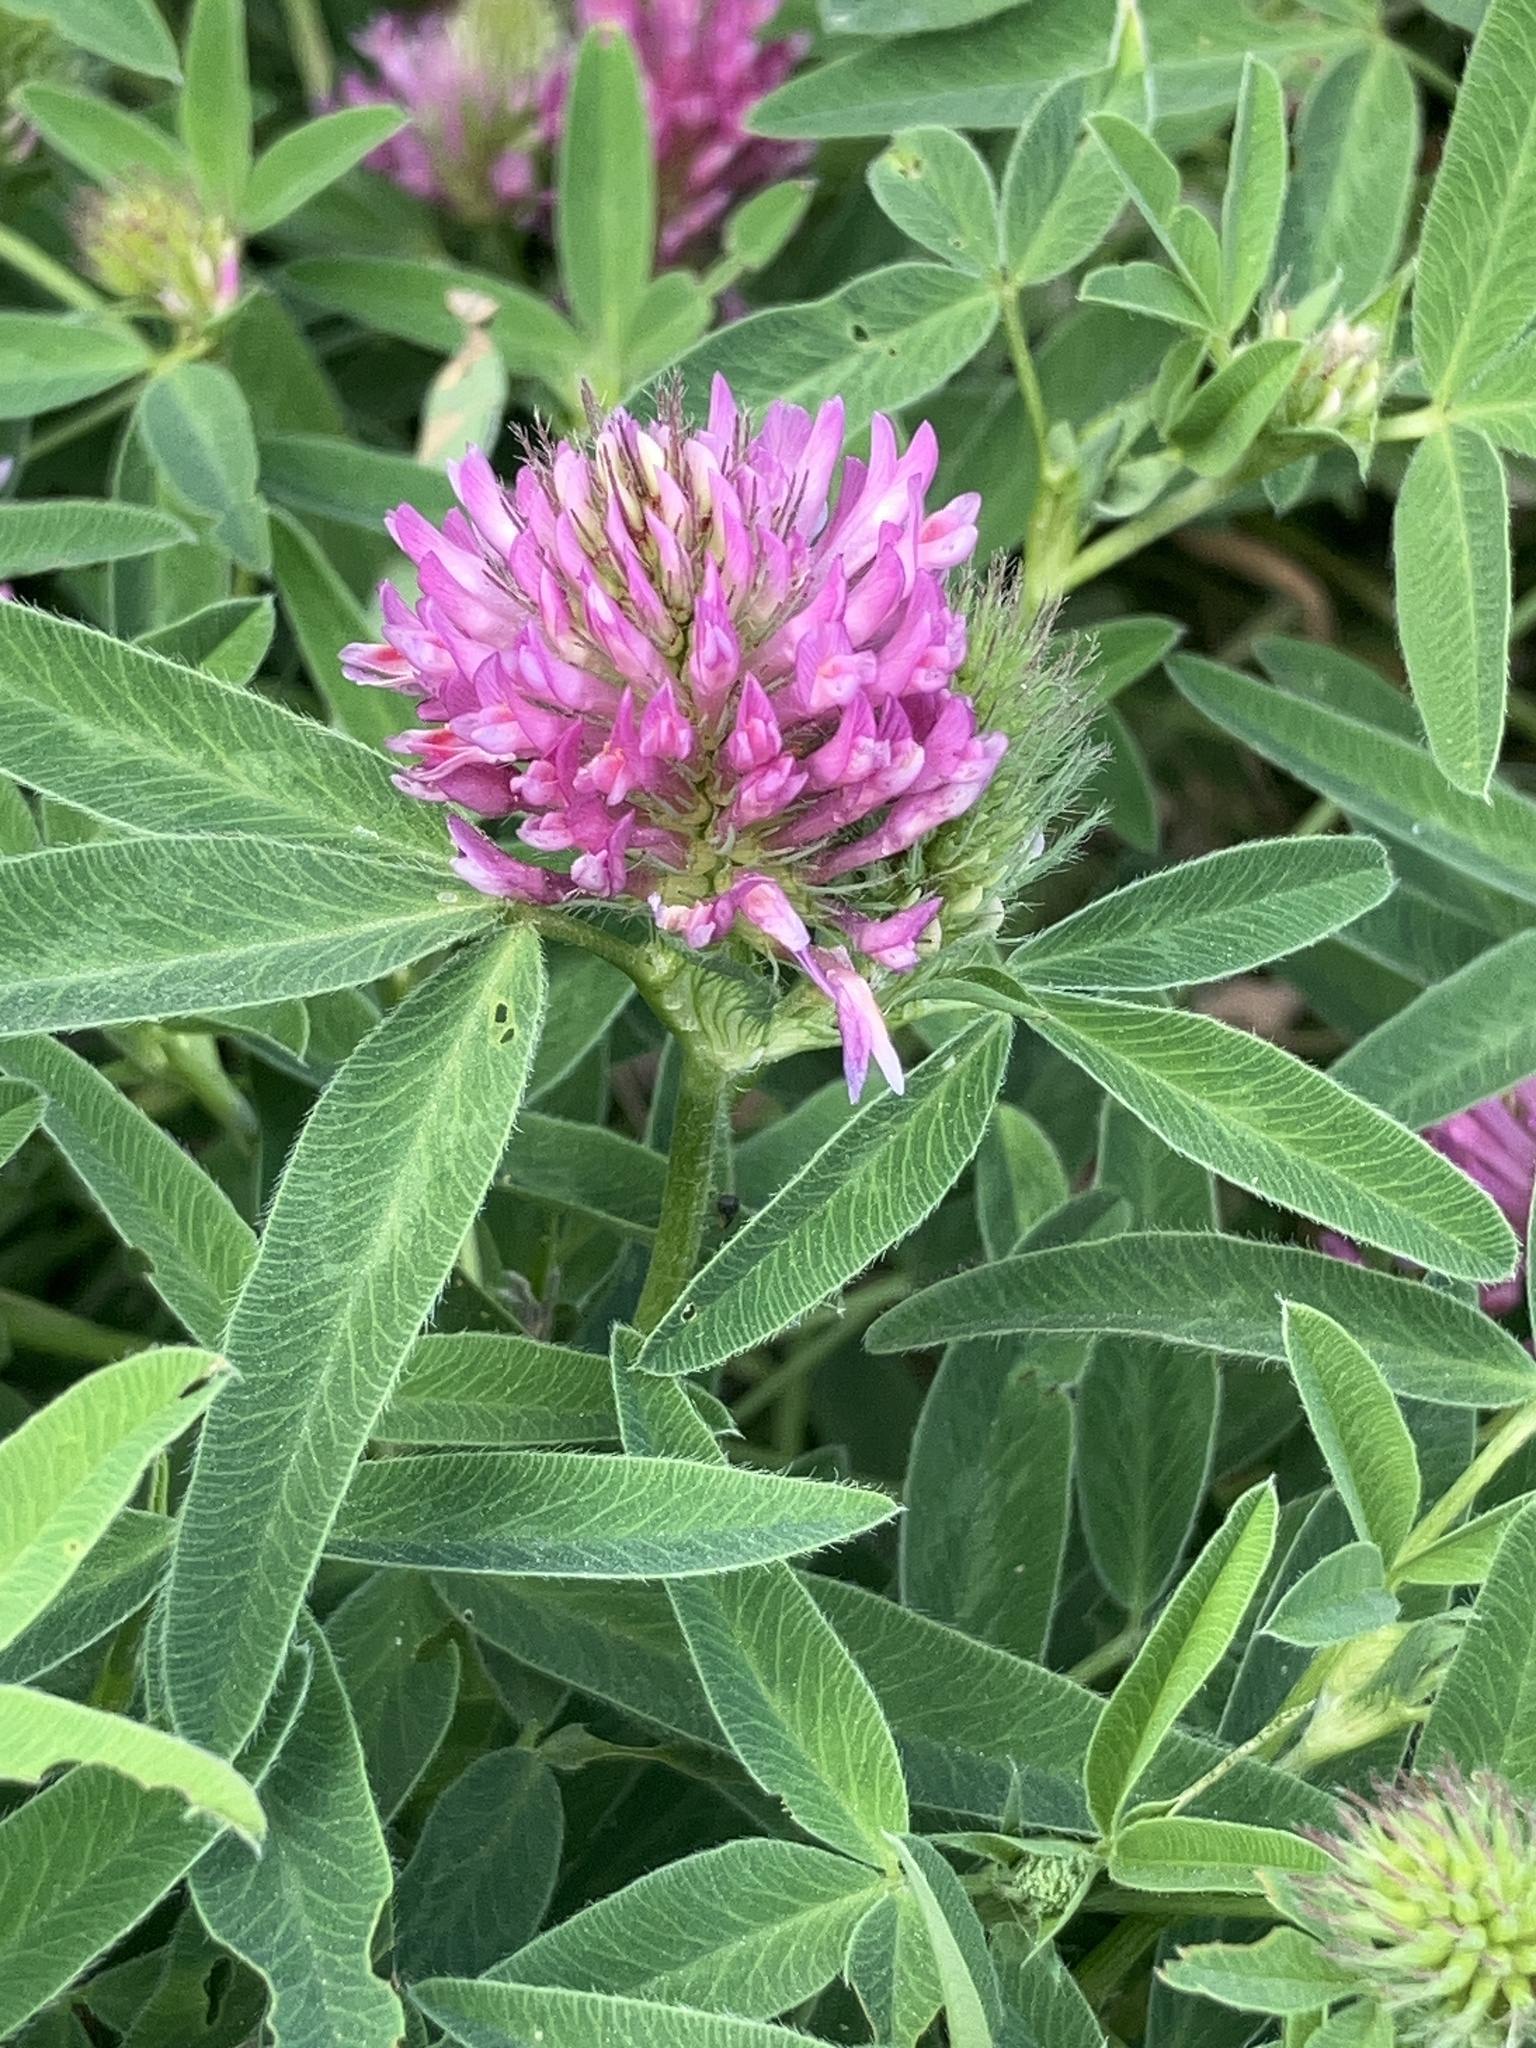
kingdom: Plantae
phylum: Tracheophyta
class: Magnoliopsida
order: Fabales
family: Fabaceae
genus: Trifolium
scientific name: Trifolium medium
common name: Zigzag clover
